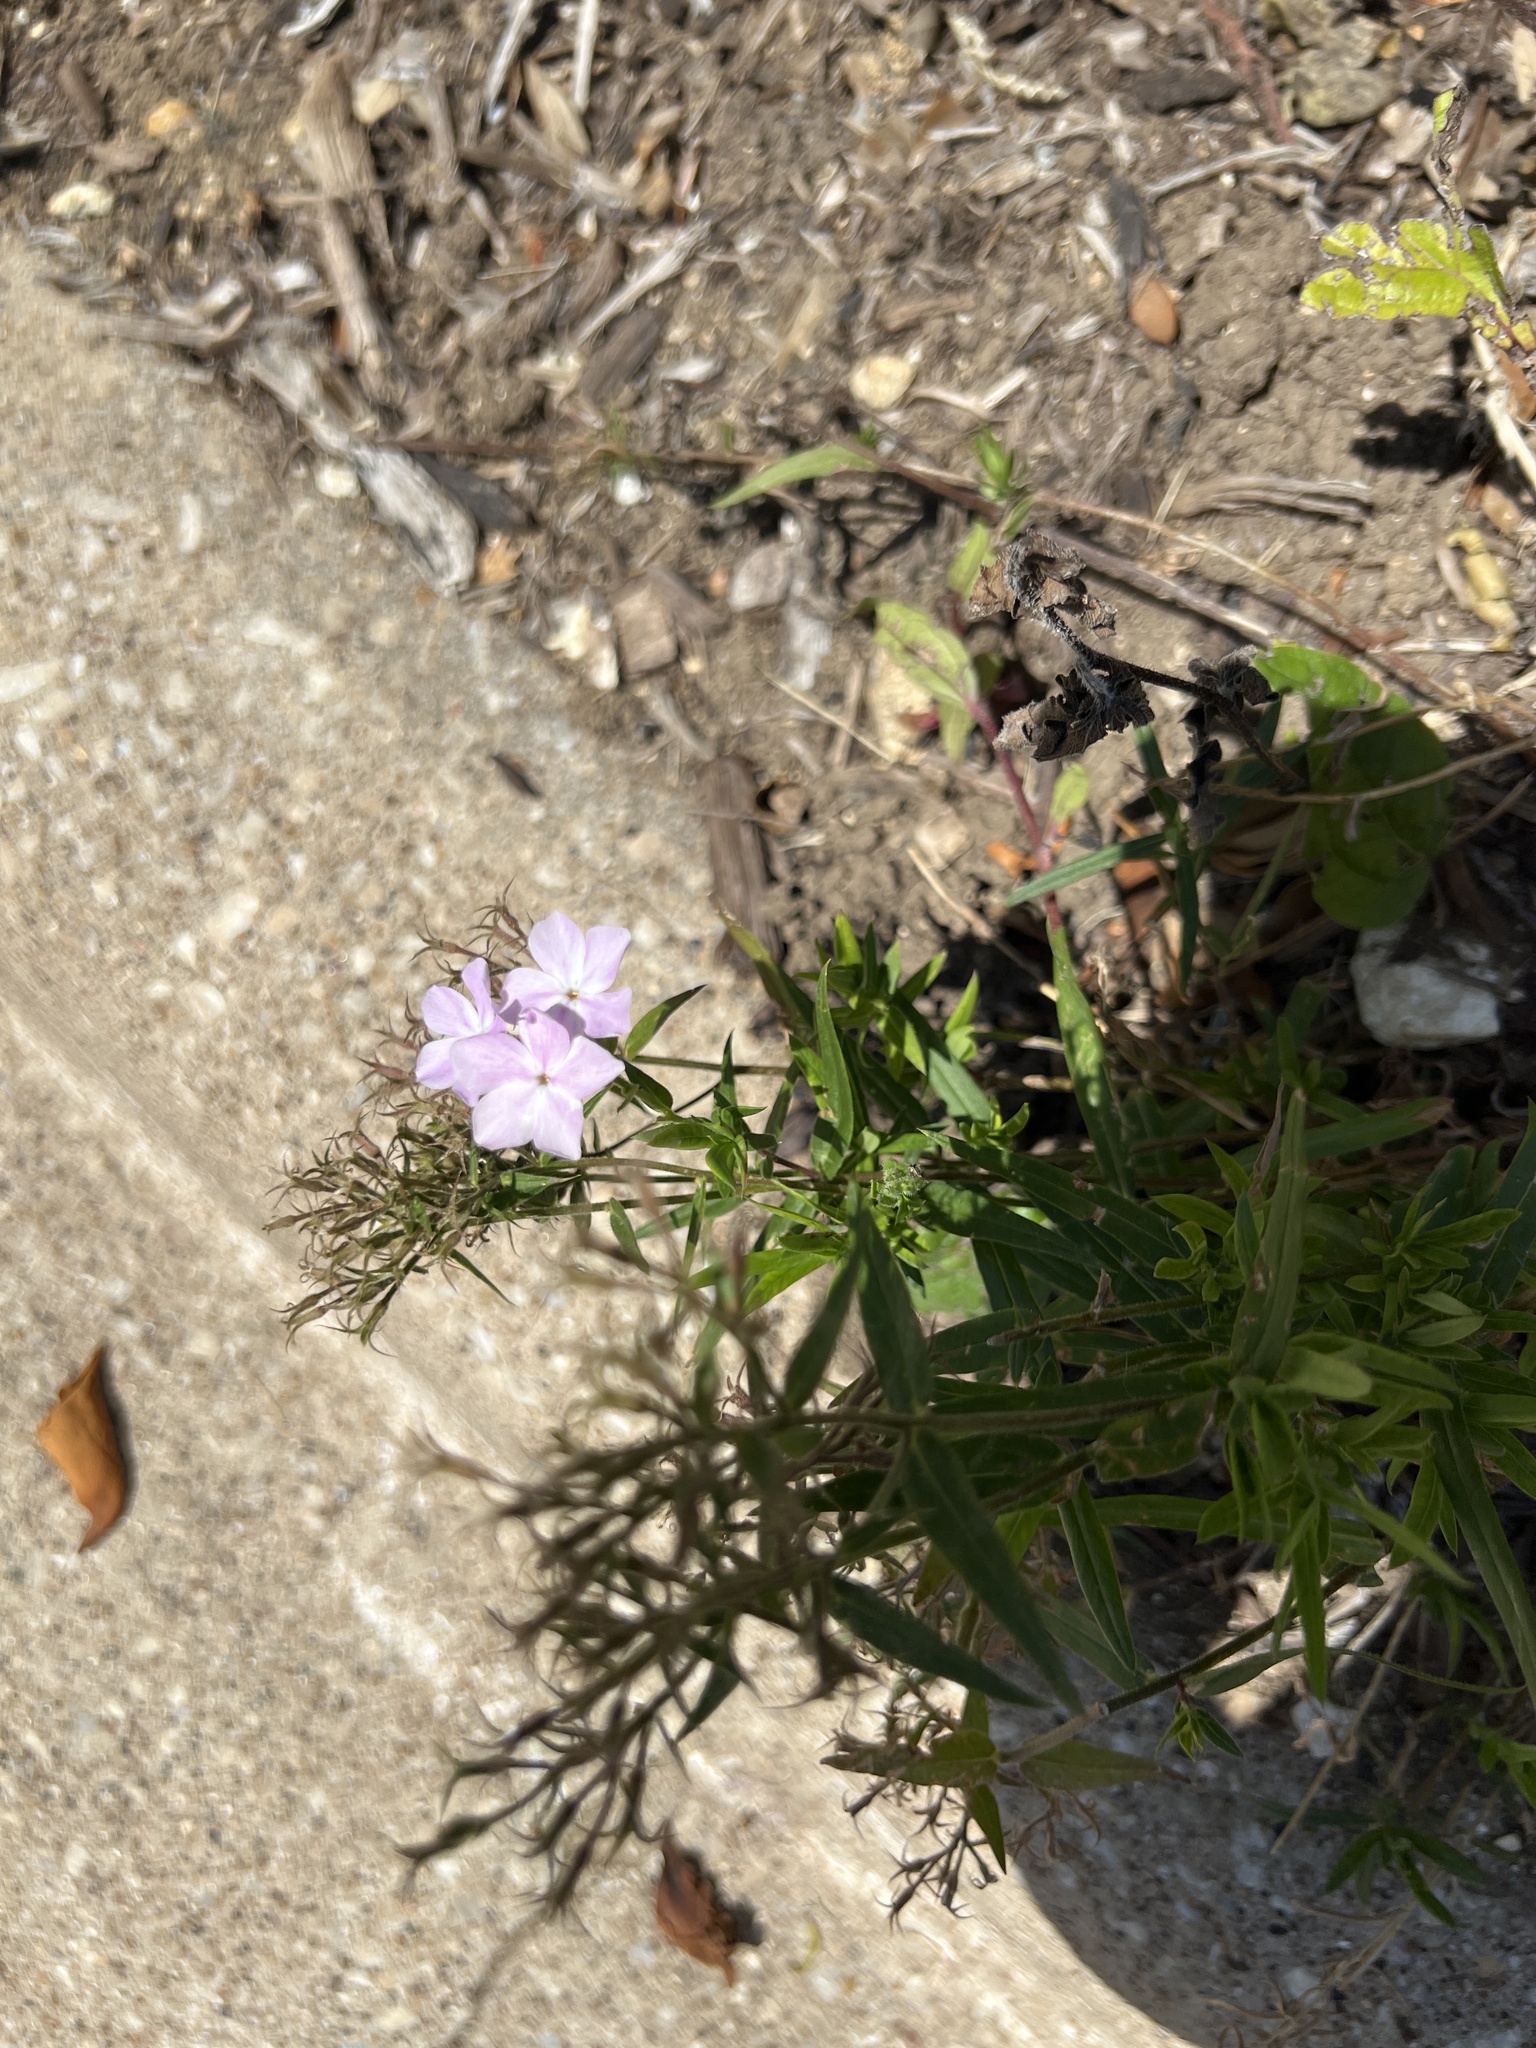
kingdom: Plantae
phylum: Tracheophyta
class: Magnoliopsida
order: Ericales
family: Polemoniaceae
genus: Phlox
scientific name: Phlox pilosa
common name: Prairie phlox
